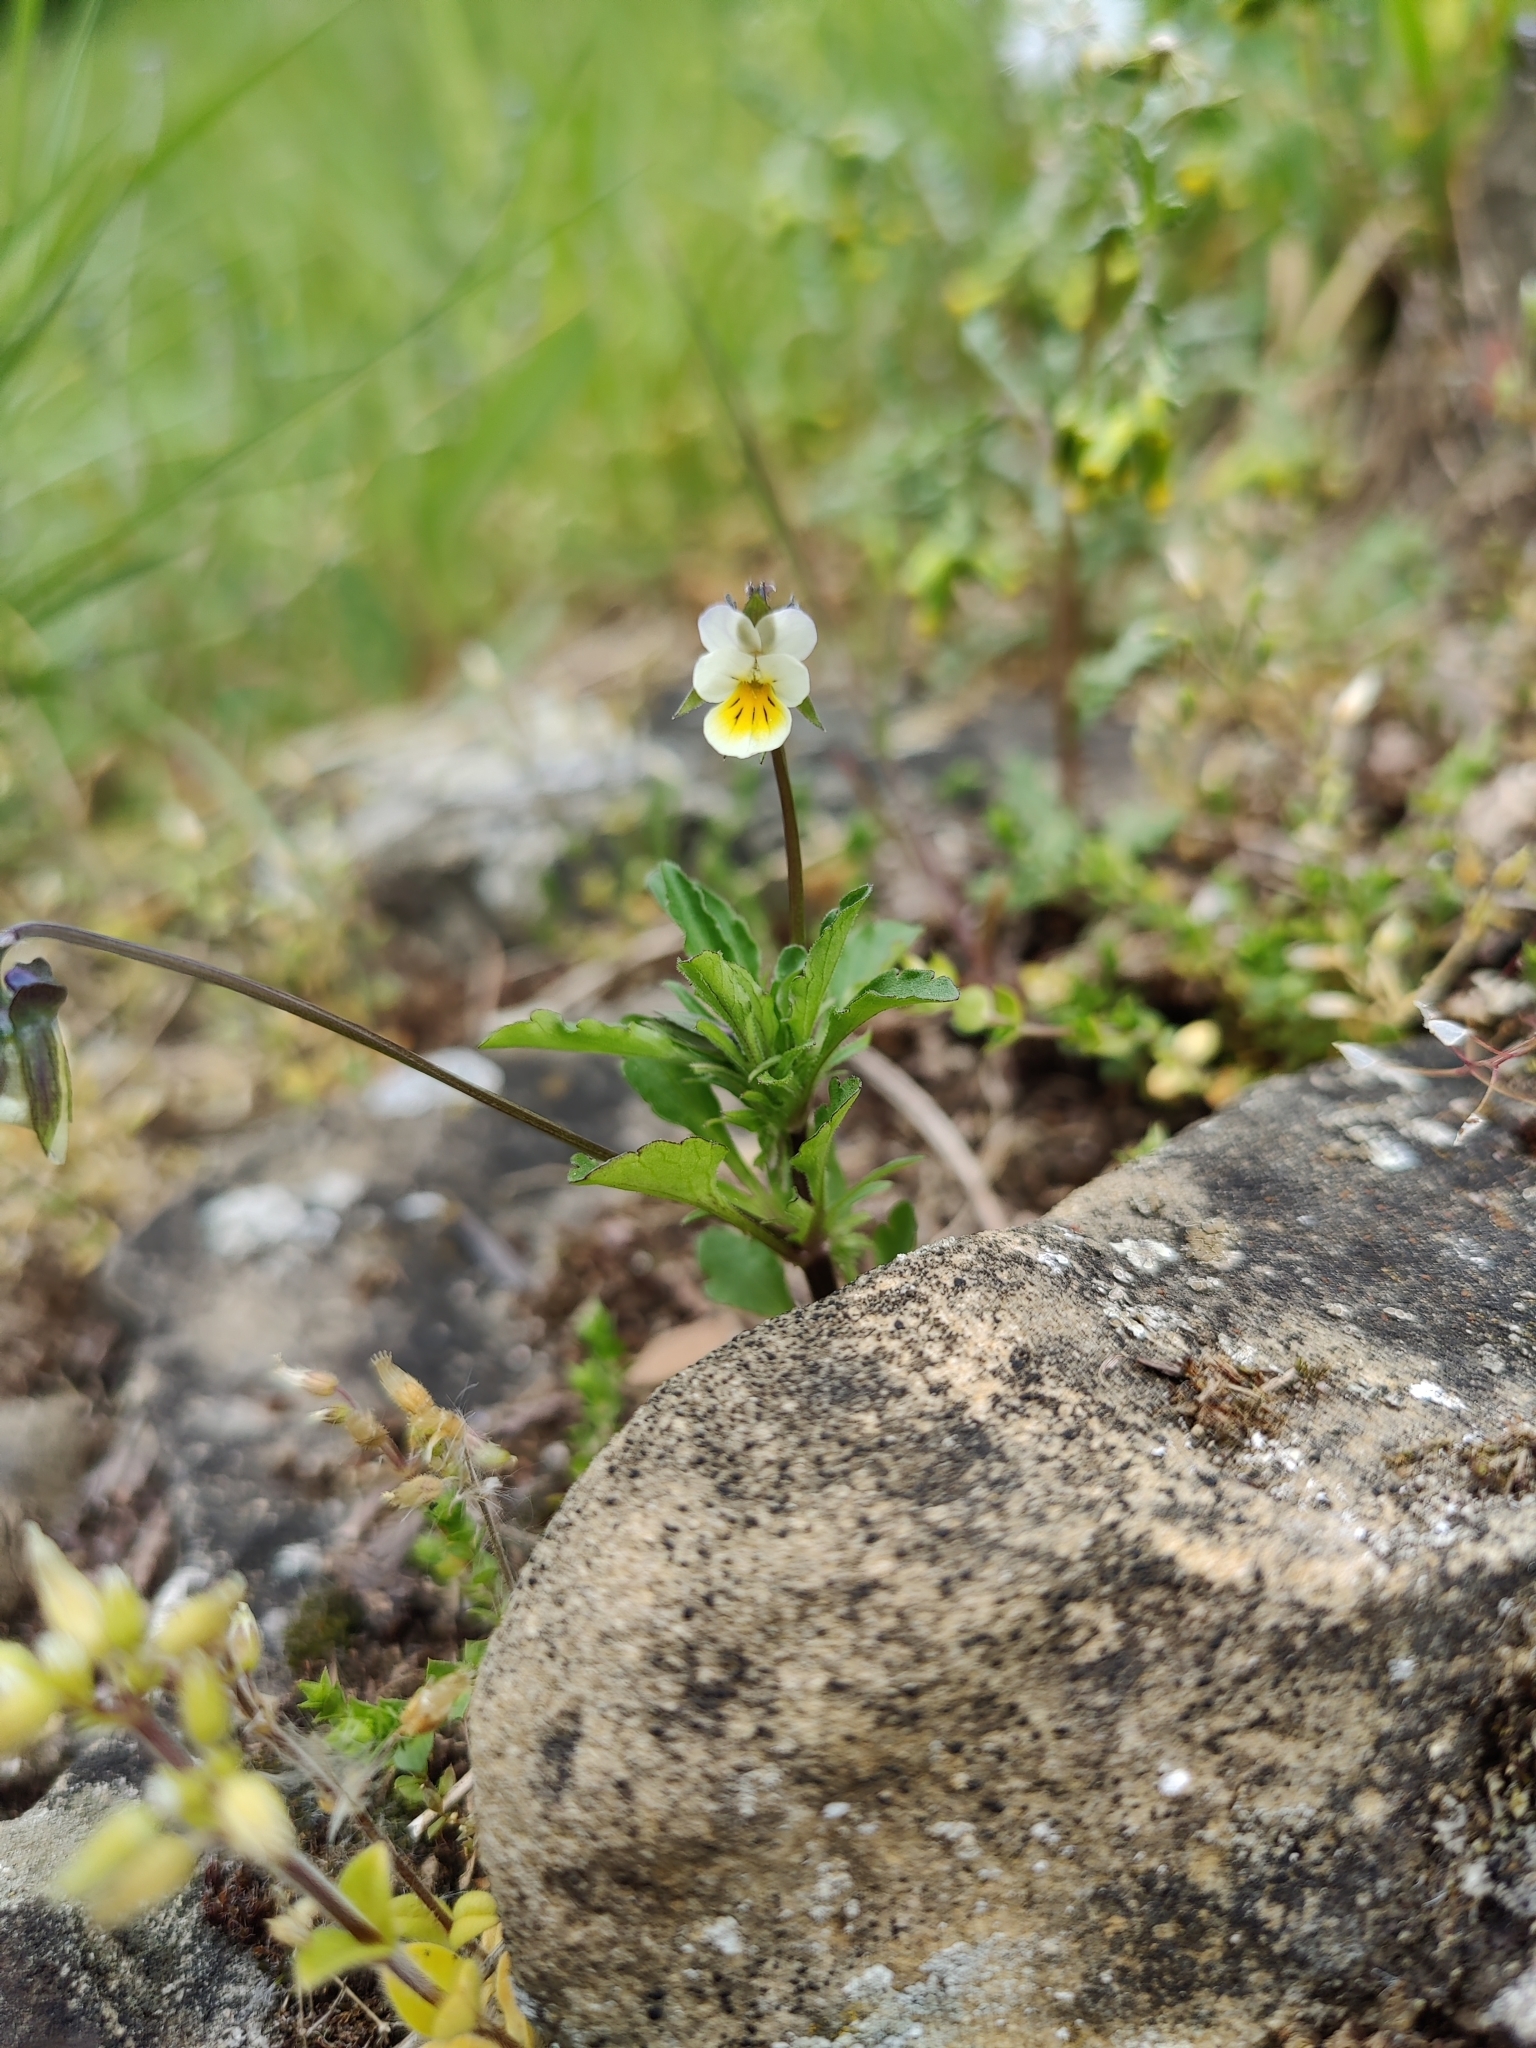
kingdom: Plantae
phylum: Tracheophyta
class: Magnoliopsida
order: Malpighiales
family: Violaceae
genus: Viola
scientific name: Viola arvensis
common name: Field pansy
